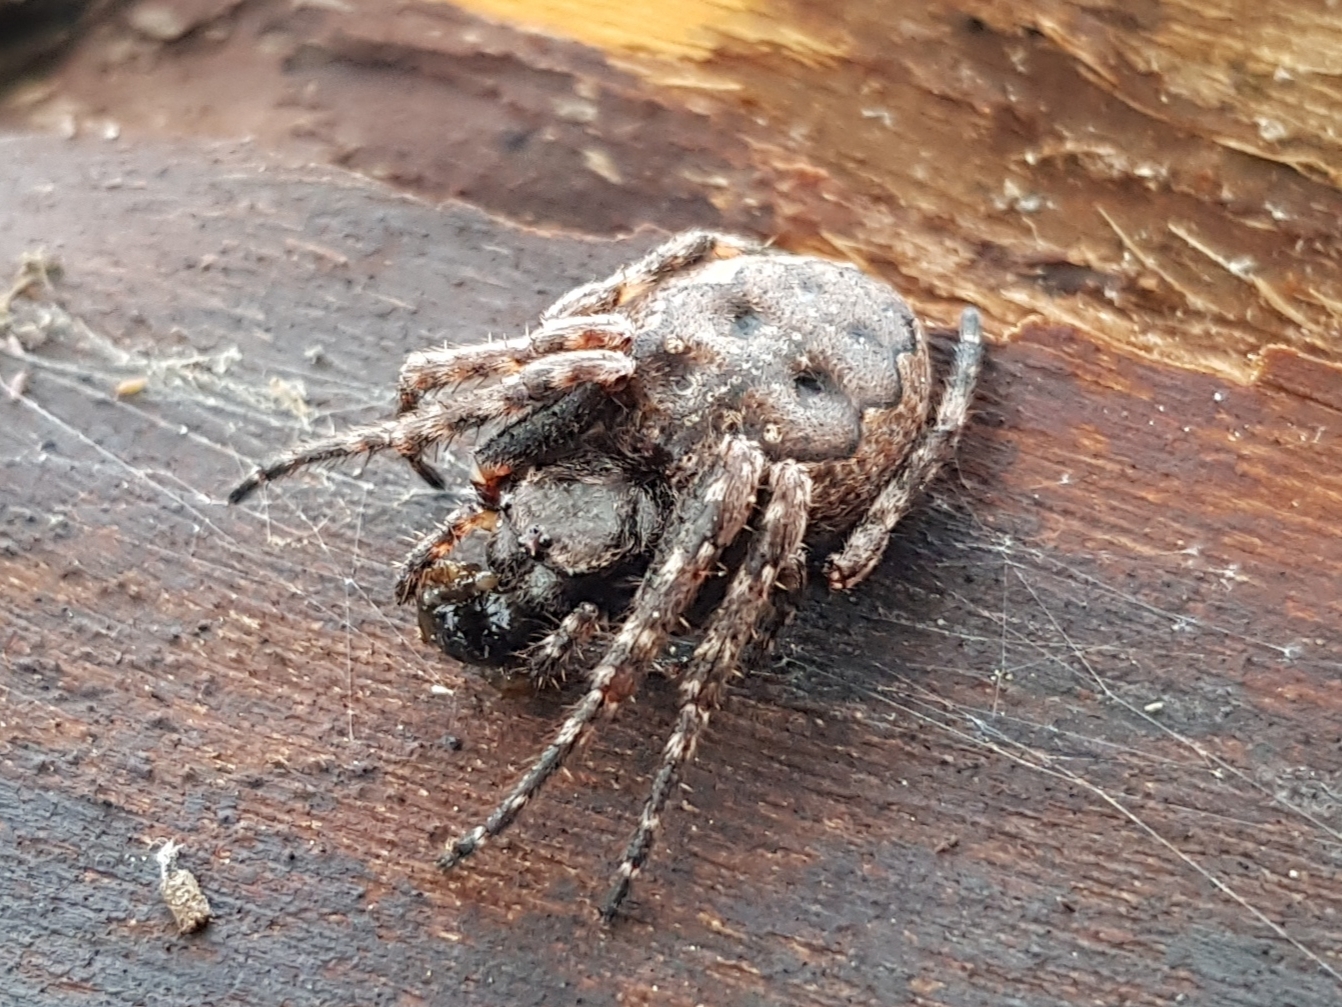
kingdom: Animalia
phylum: Arthropoda
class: Arachnida
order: Araneae
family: Araneidae
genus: Nuctenea
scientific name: Nuctenea umbratica
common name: Toad spider
